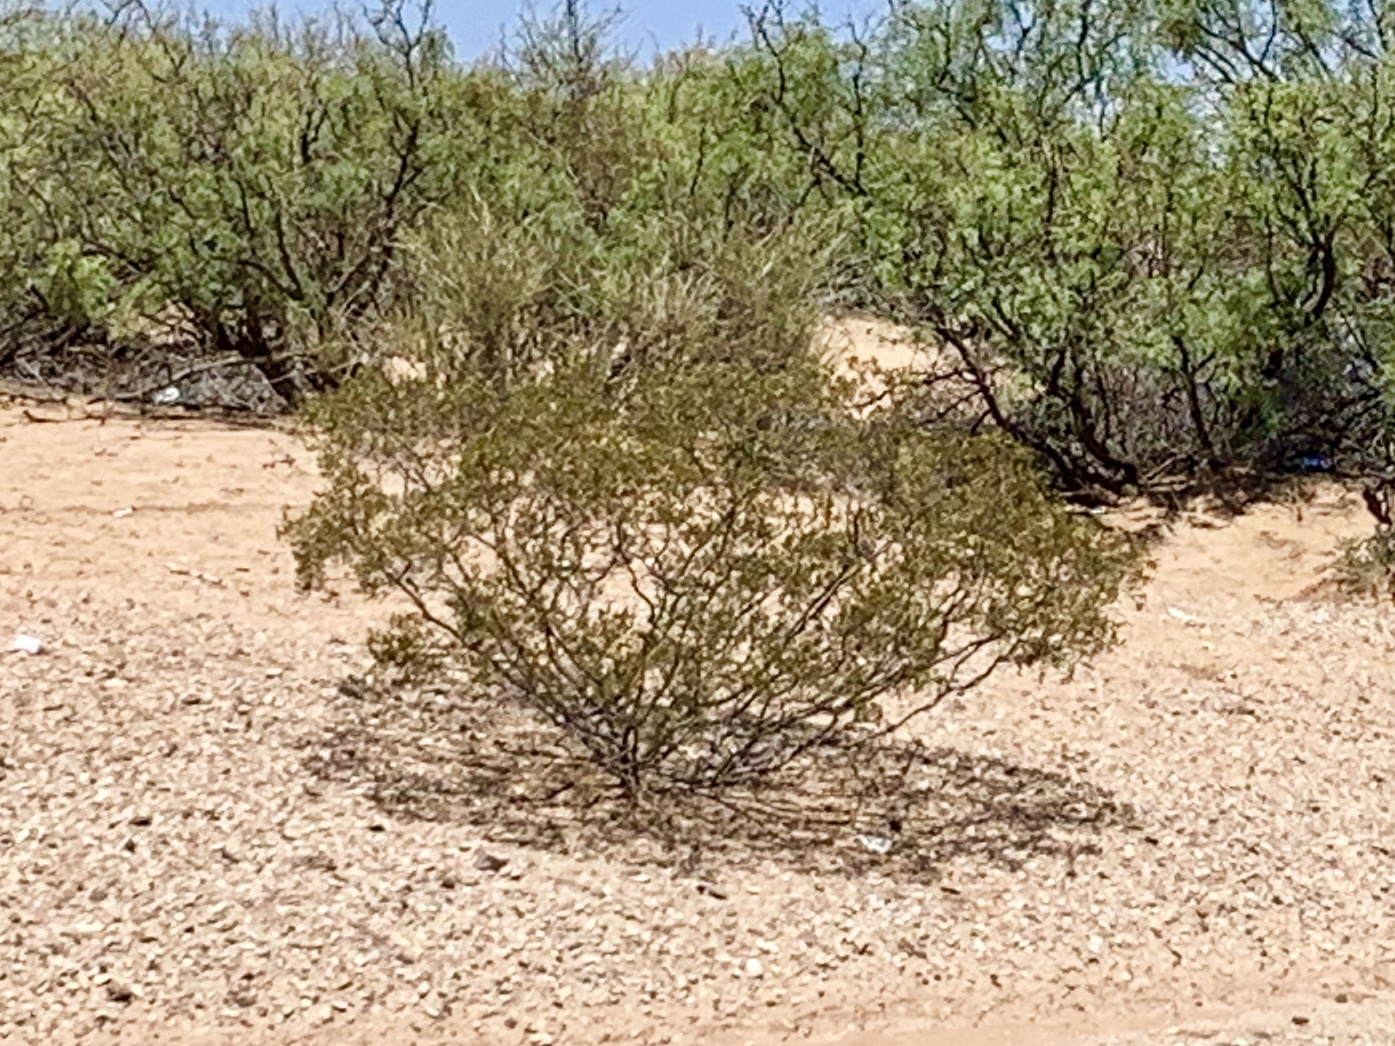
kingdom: Plantae
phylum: Tracheophyta
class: Magnoliopsida
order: Zygophyllales
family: Zygophyllaceae
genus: Larrea
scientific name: Larrea tridentata
